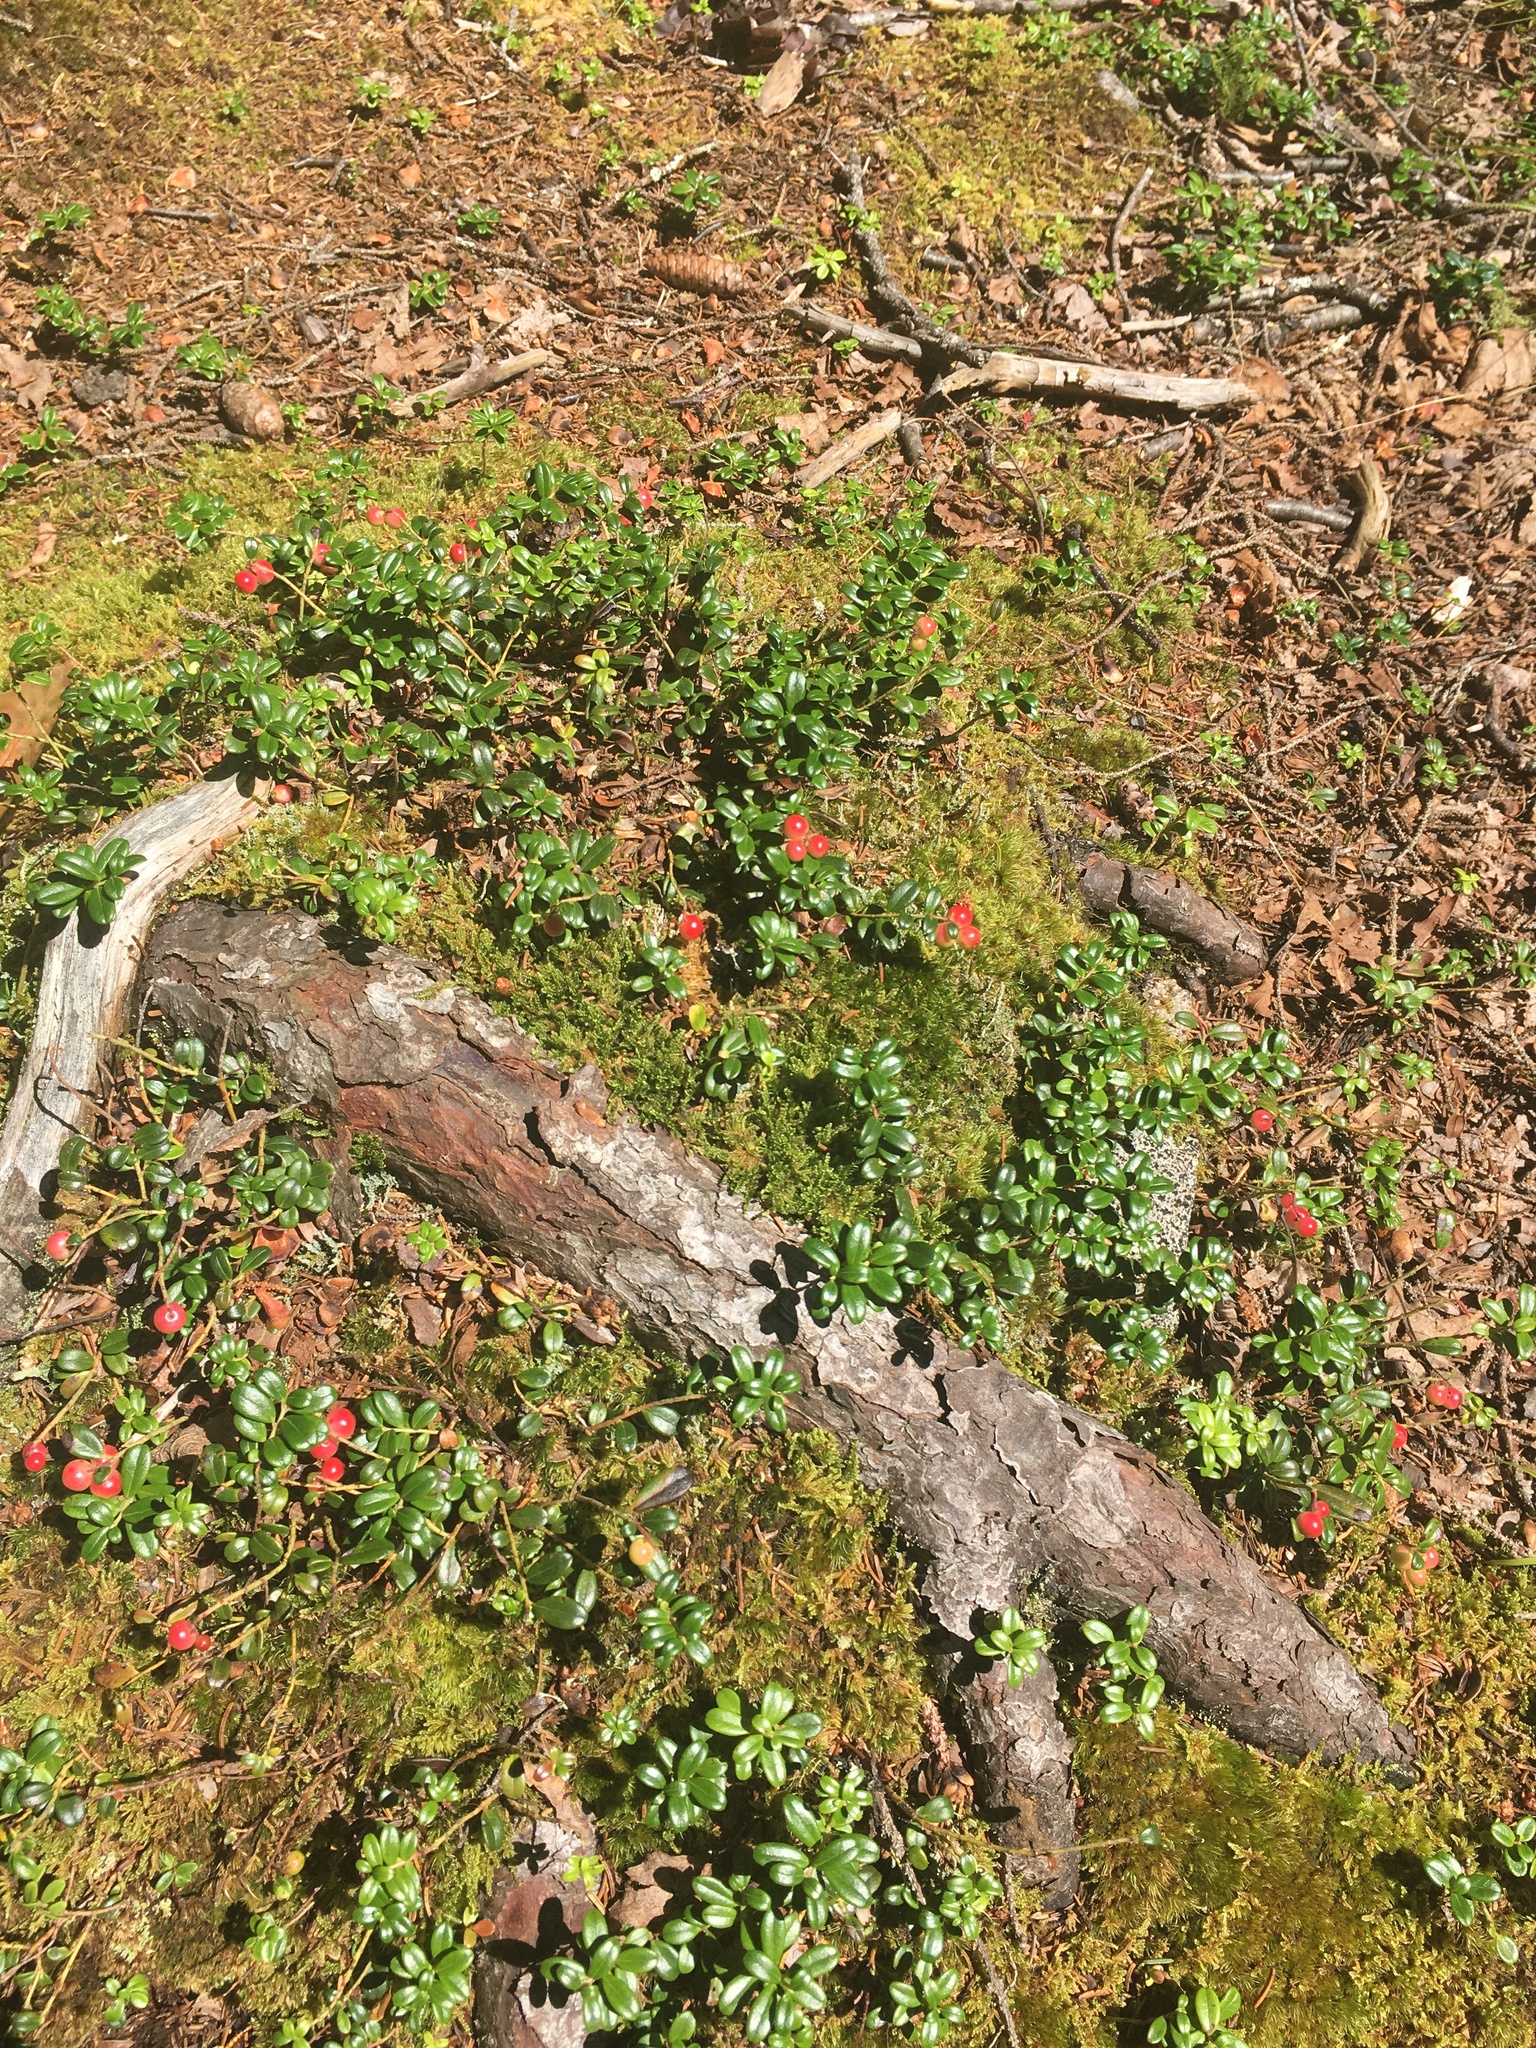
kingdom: Plantae
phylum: Tracheophyta
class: Magnoliopsida
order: Ericales
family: Ericaceae
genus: Vaccinium
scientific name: Vaccinium vitis-idaea
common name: Cowberry
